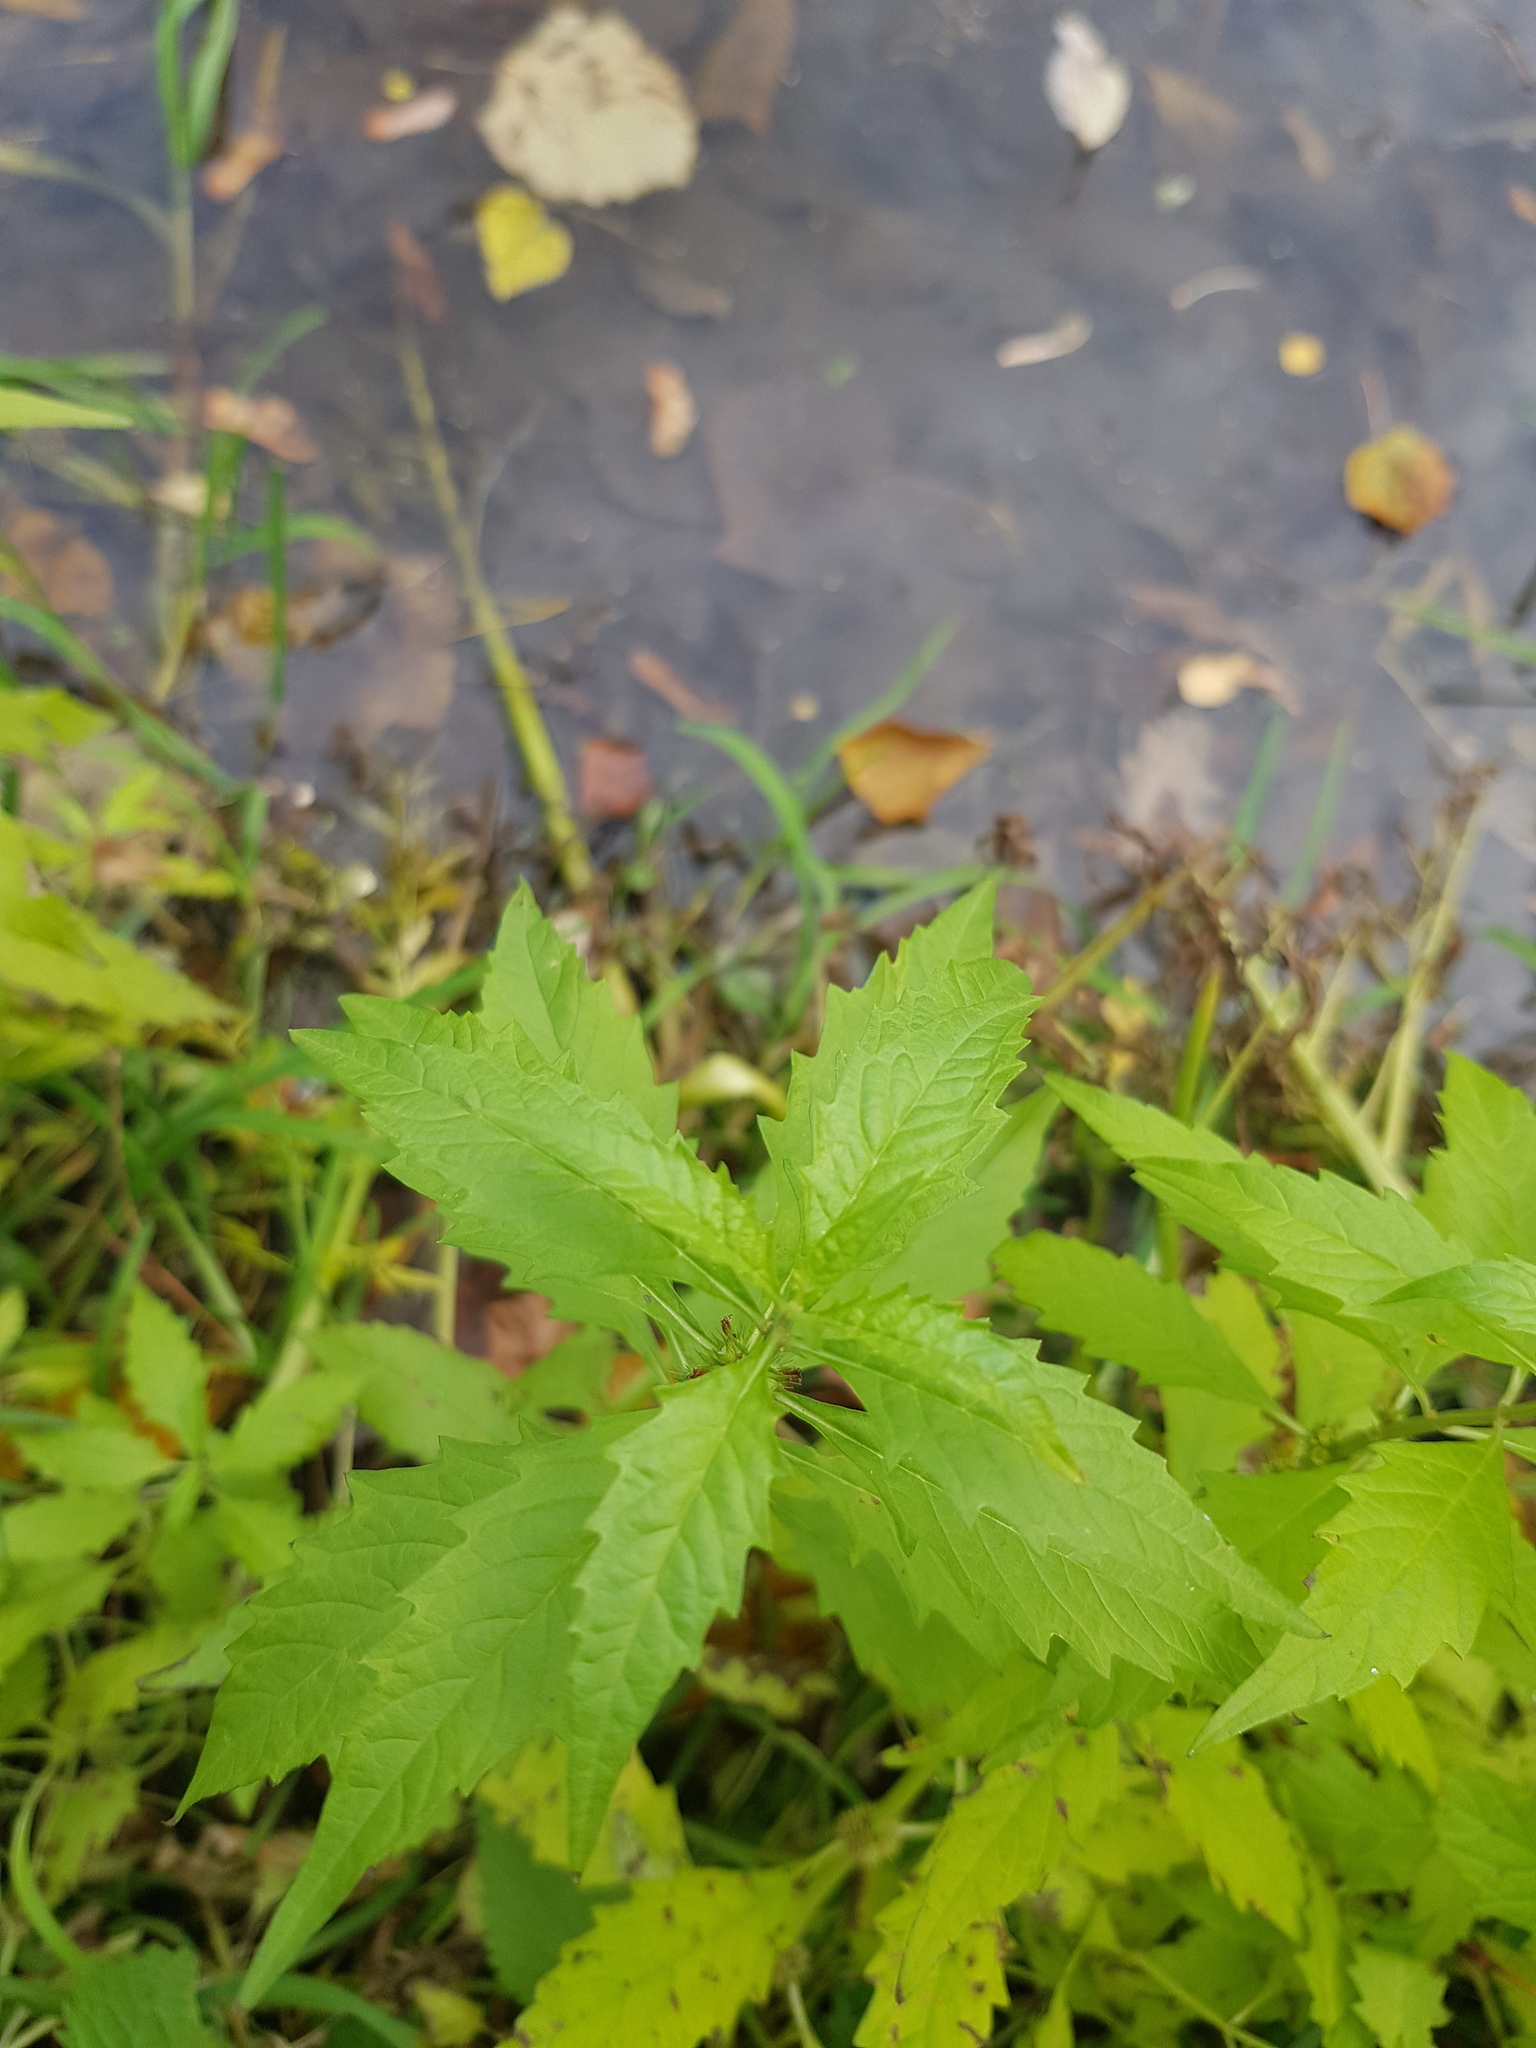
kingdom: Plantae
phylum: Tracheophyta
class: Magnoliopsida
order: Lamiales
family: Lamiaceae
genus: Lycopus
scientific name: Lycopus europaeus
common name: European bugleweed
